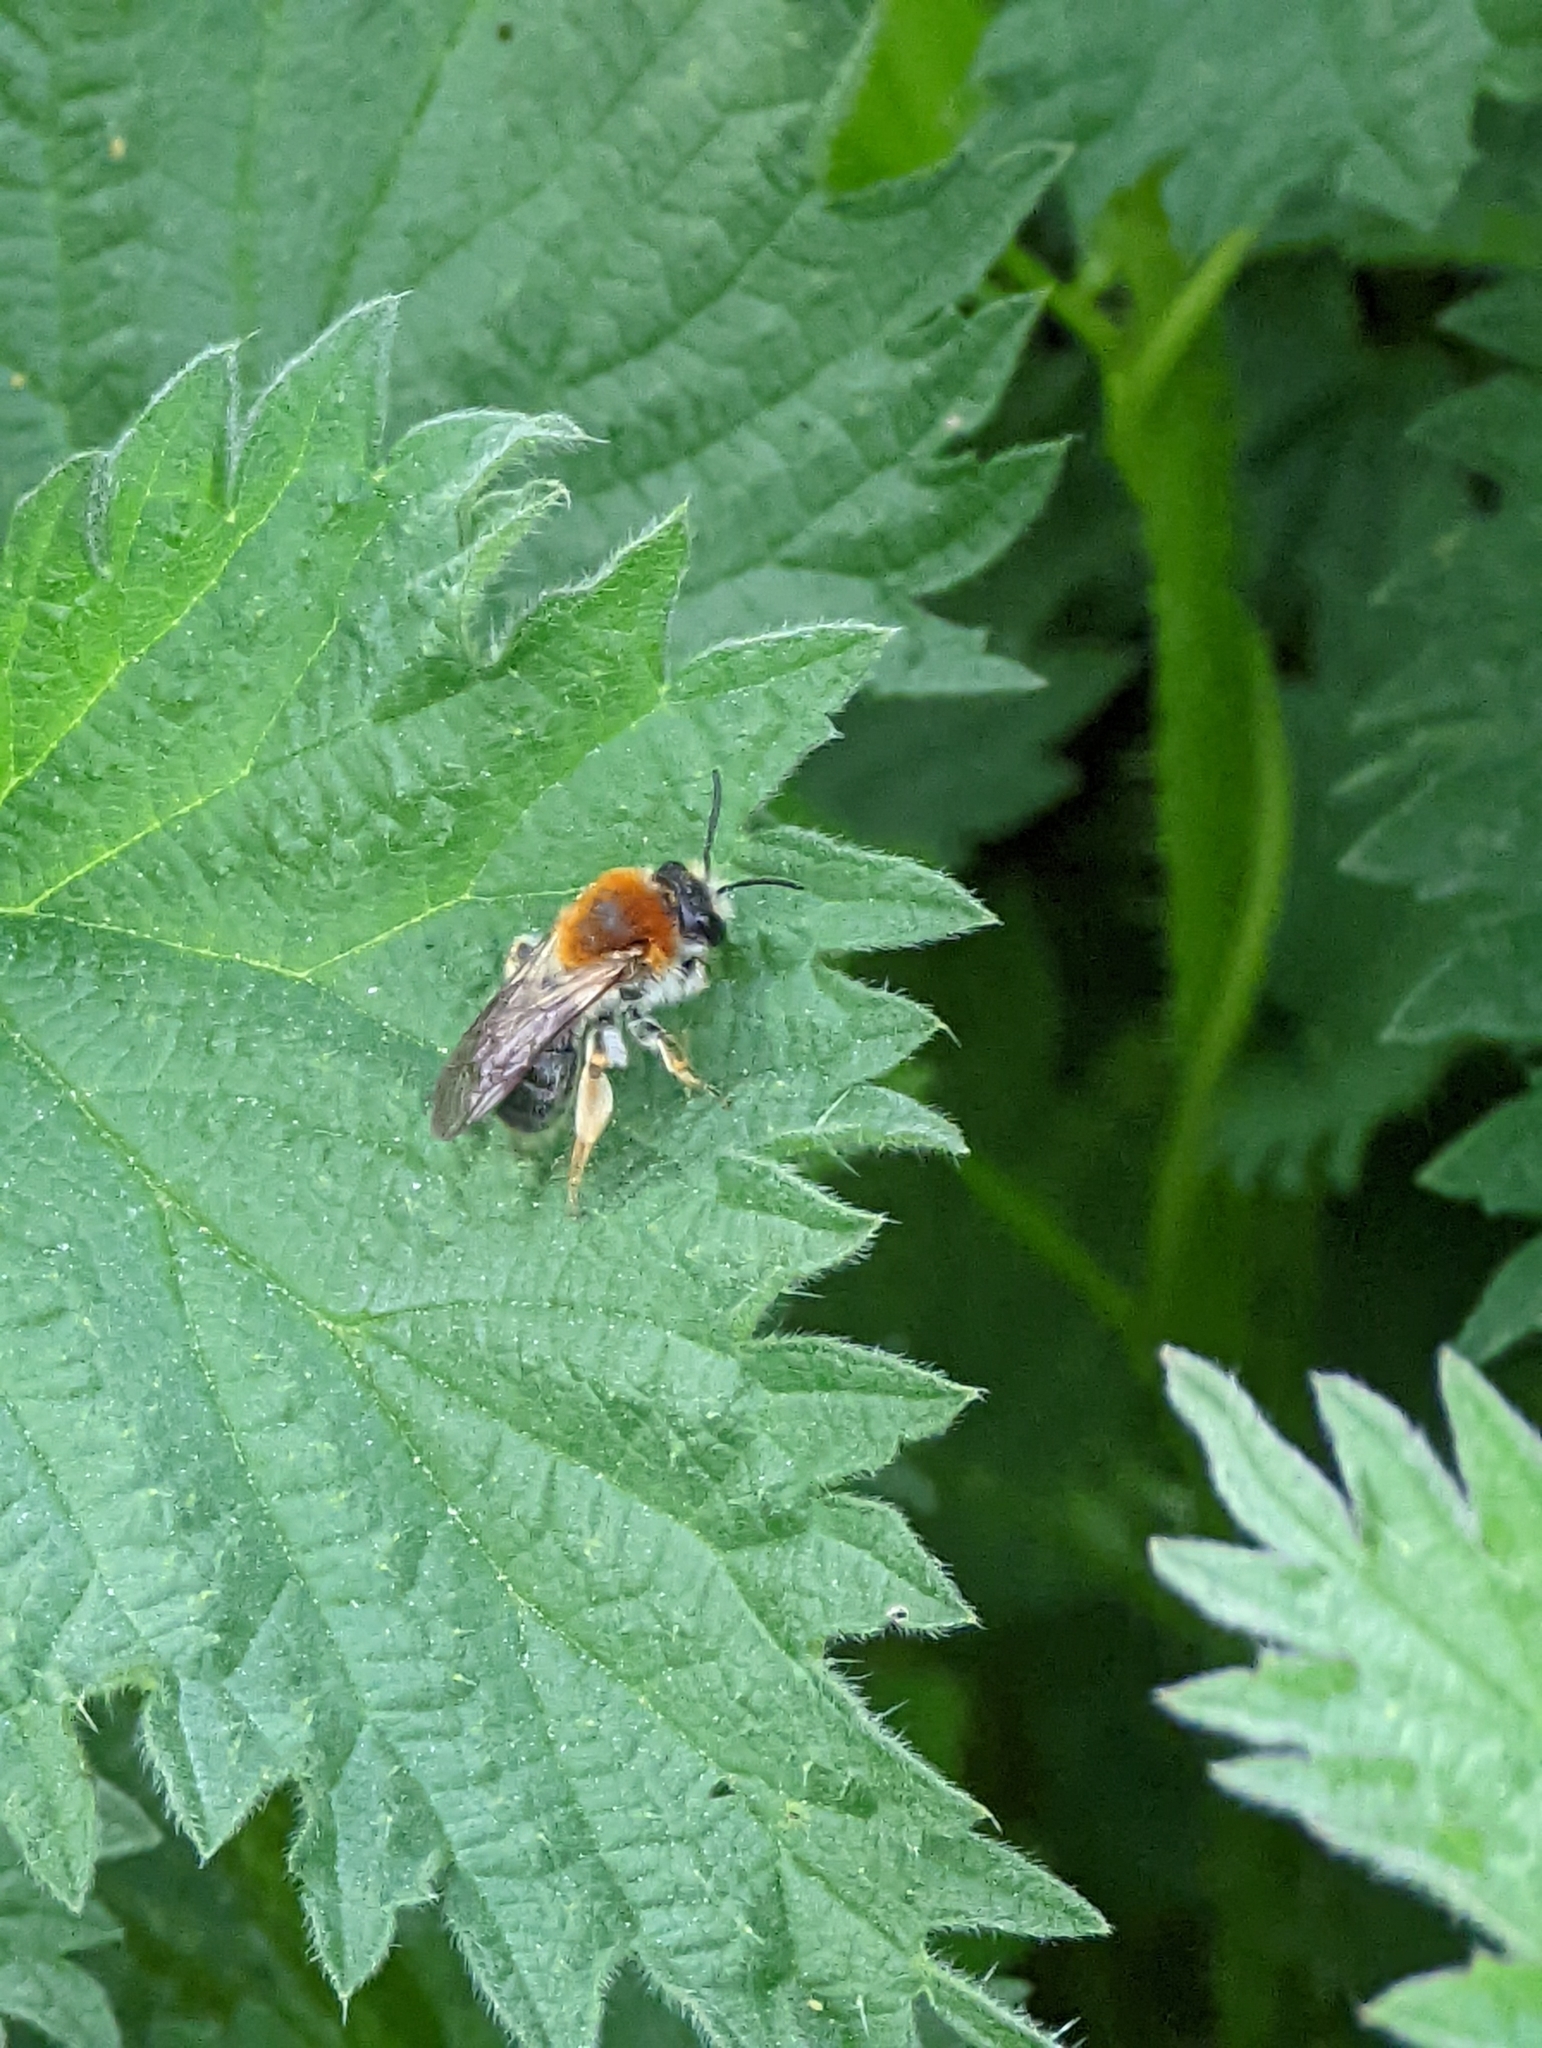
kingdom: Animalia
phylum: Arthropoda
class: Insecta
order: Hymenoptera
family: Andrenidae
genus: Andrena
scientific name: Andrena haemorrhoa
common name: Early mining bee
